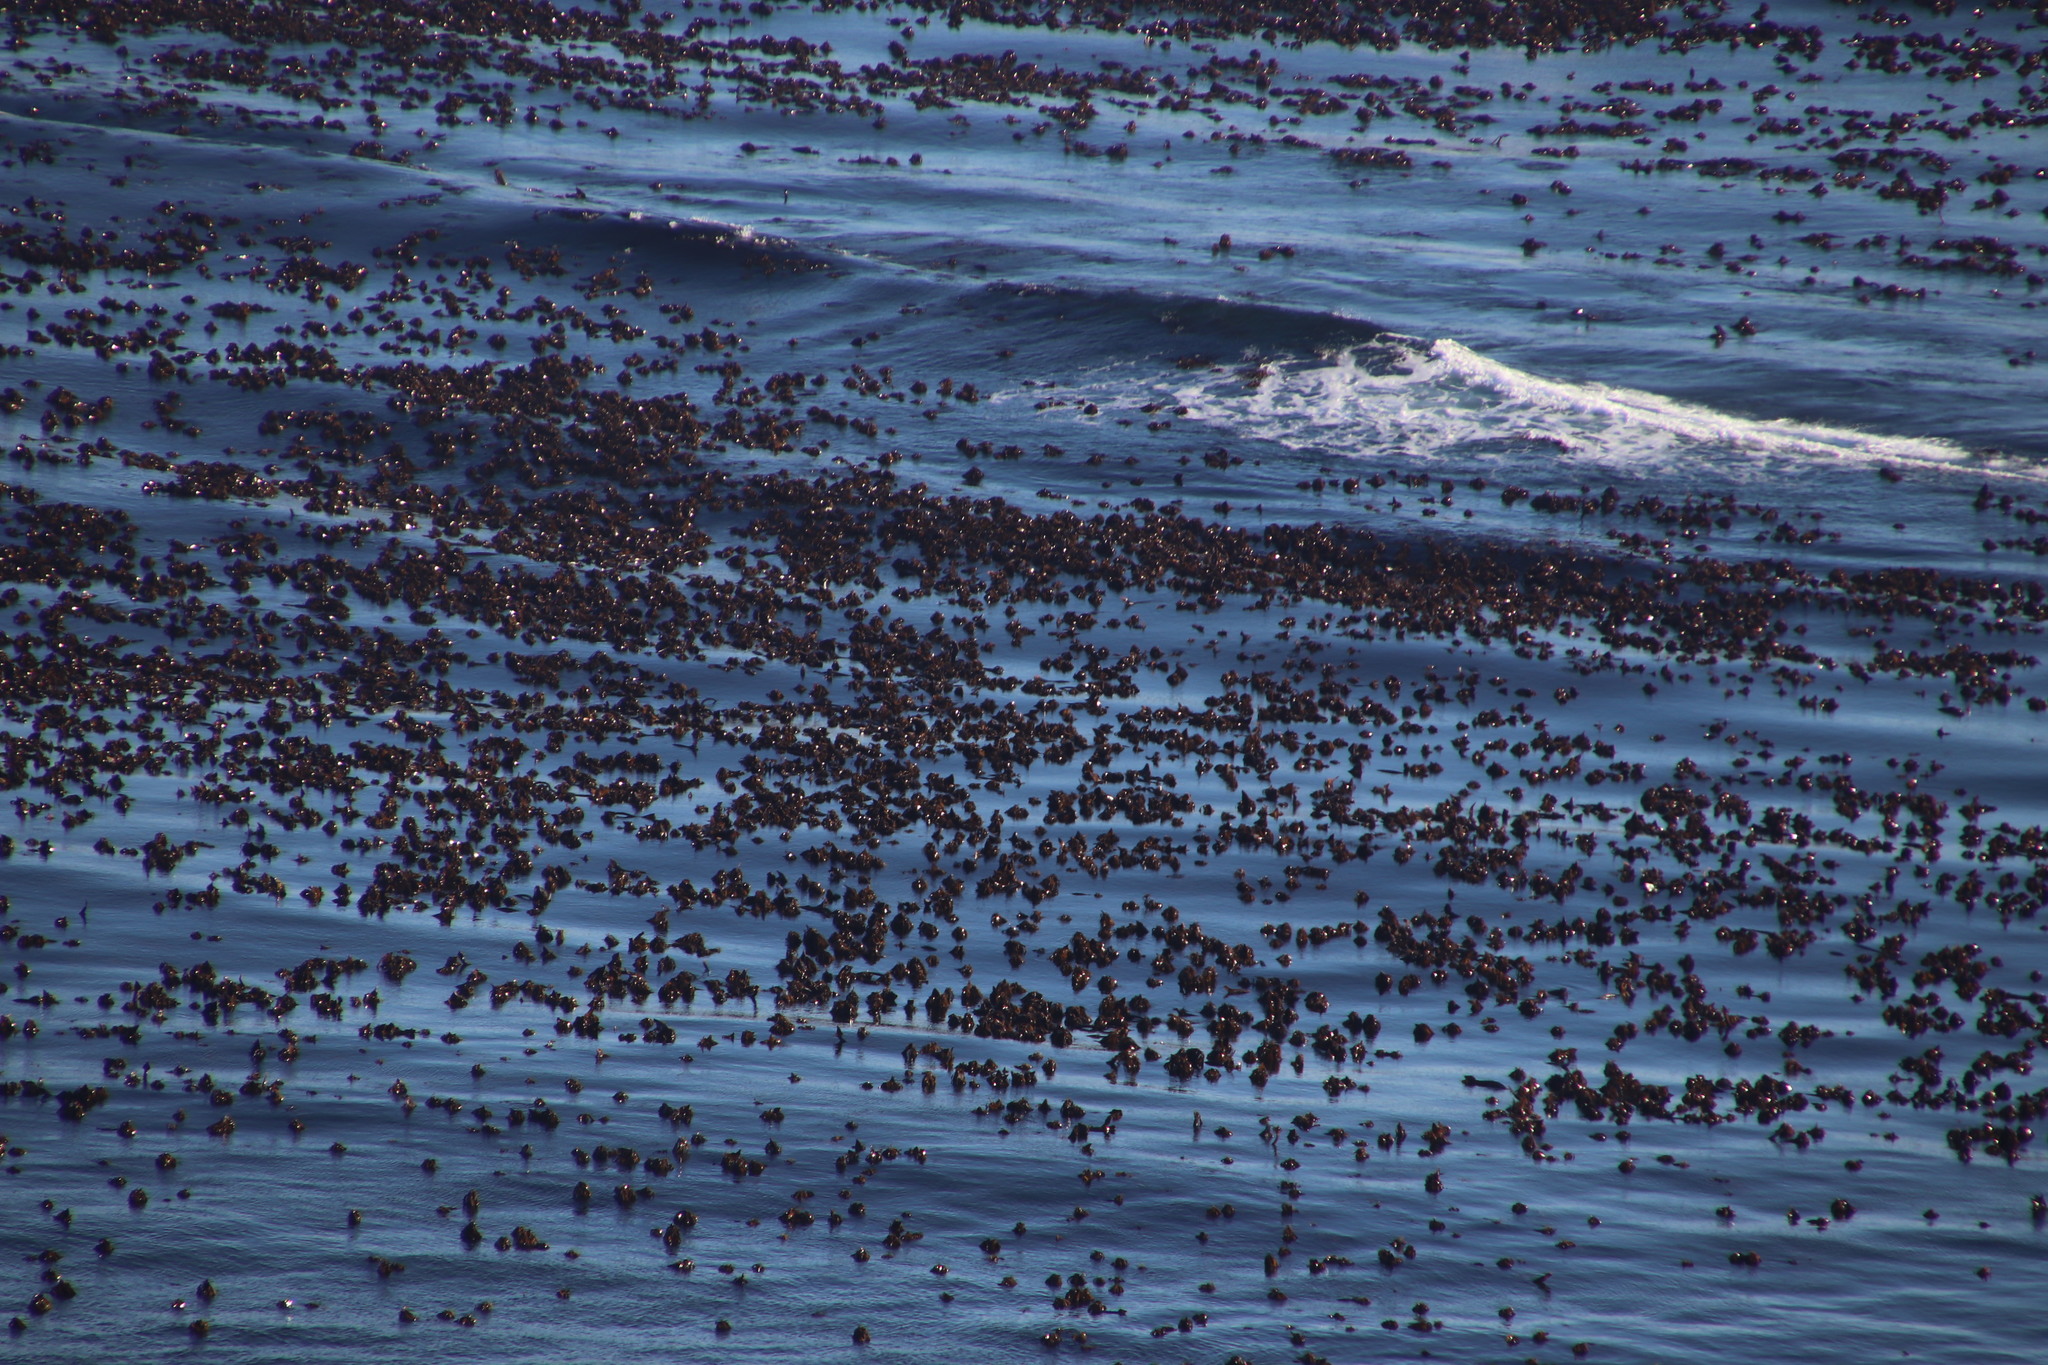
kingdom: Chromista
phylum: Ochrophyta
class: Phaeophyceae
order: Laminariales
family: Lessoniaceae
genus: Ecklonia
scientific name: Ecklonia
